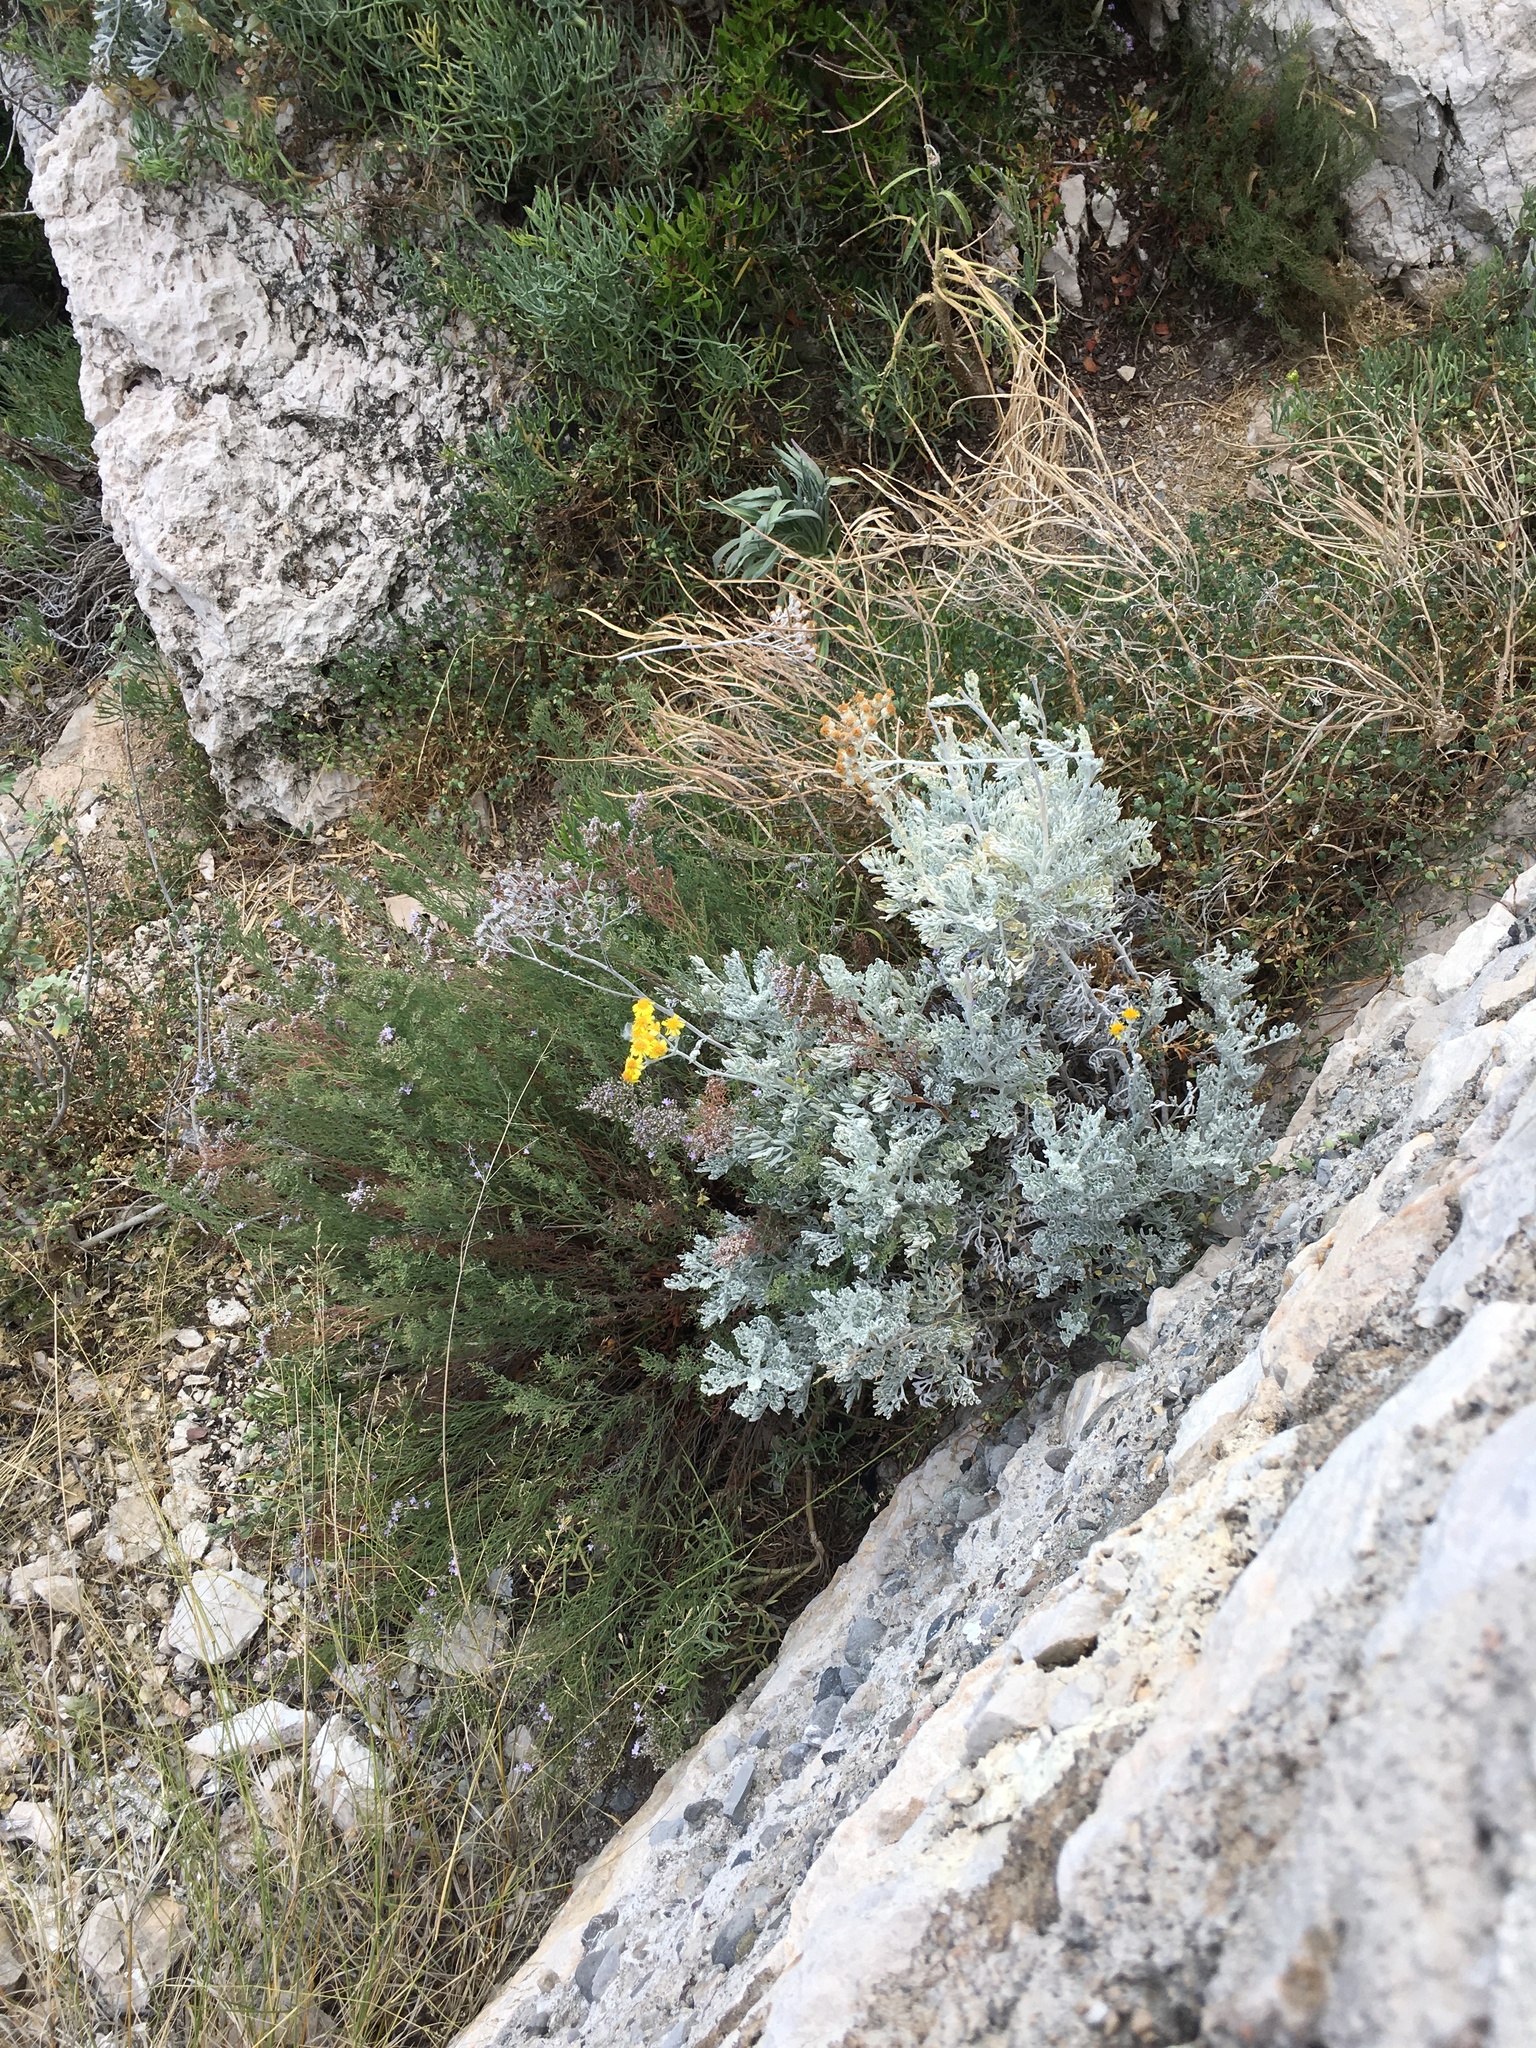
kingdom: Plantae
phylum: Tracheophyta
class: Magnoliopsida
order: Asterales
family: Asteraceae
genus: Jacobaea
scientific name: Jacobaea maritima
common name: Silver ragwort
